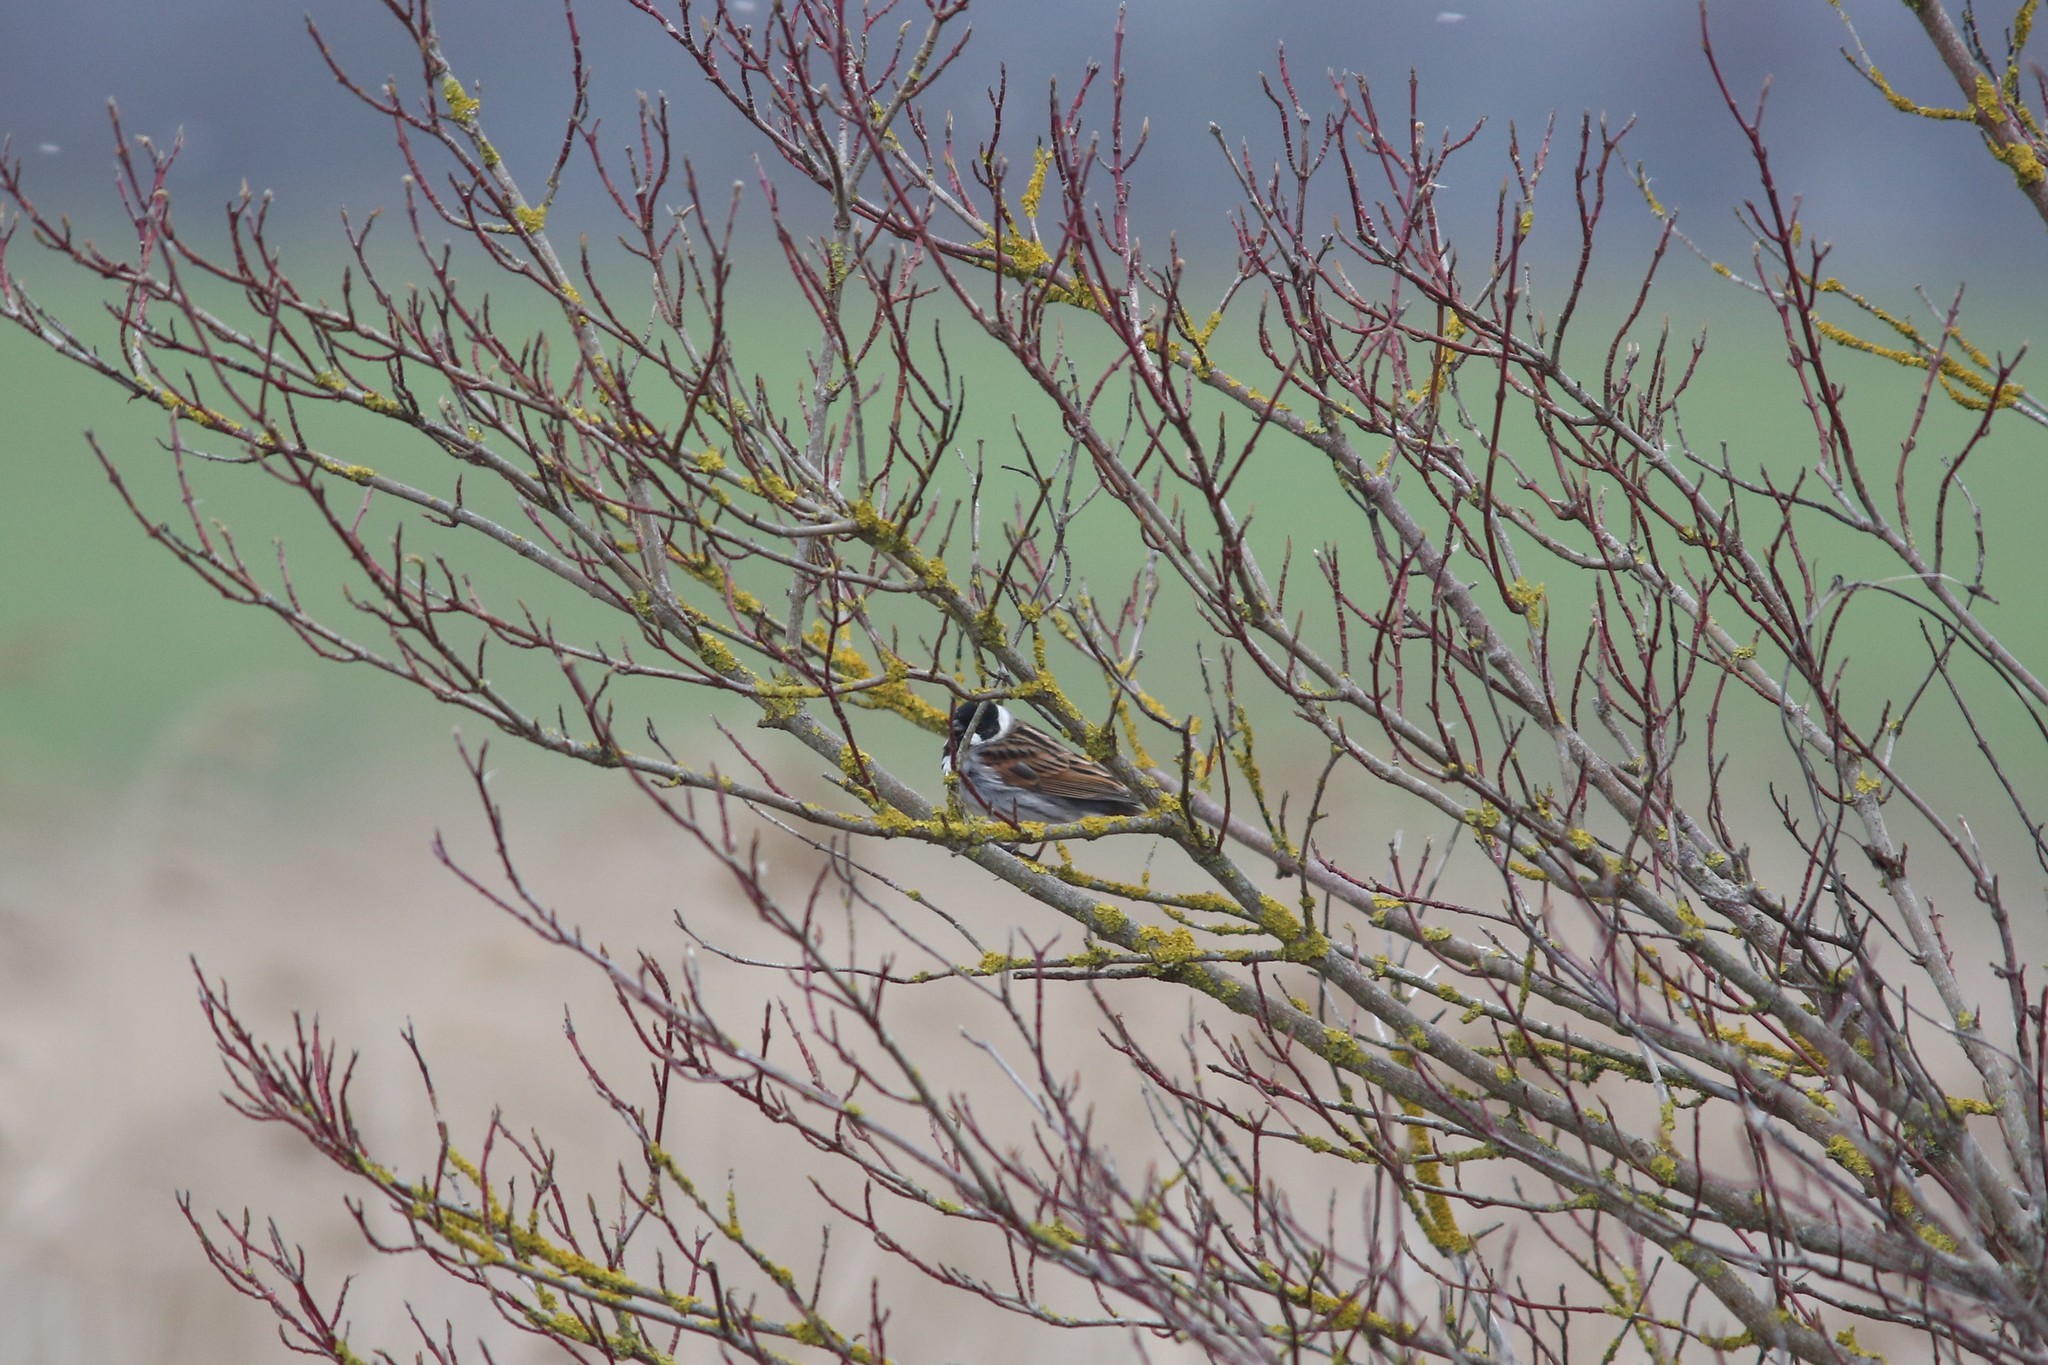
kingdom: Animalia
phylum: Chordata
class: Aves
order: Passeriformes
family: Emberizidae
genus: Emberiza
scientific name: Emberiza schoeniclus
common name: Reed bunting
